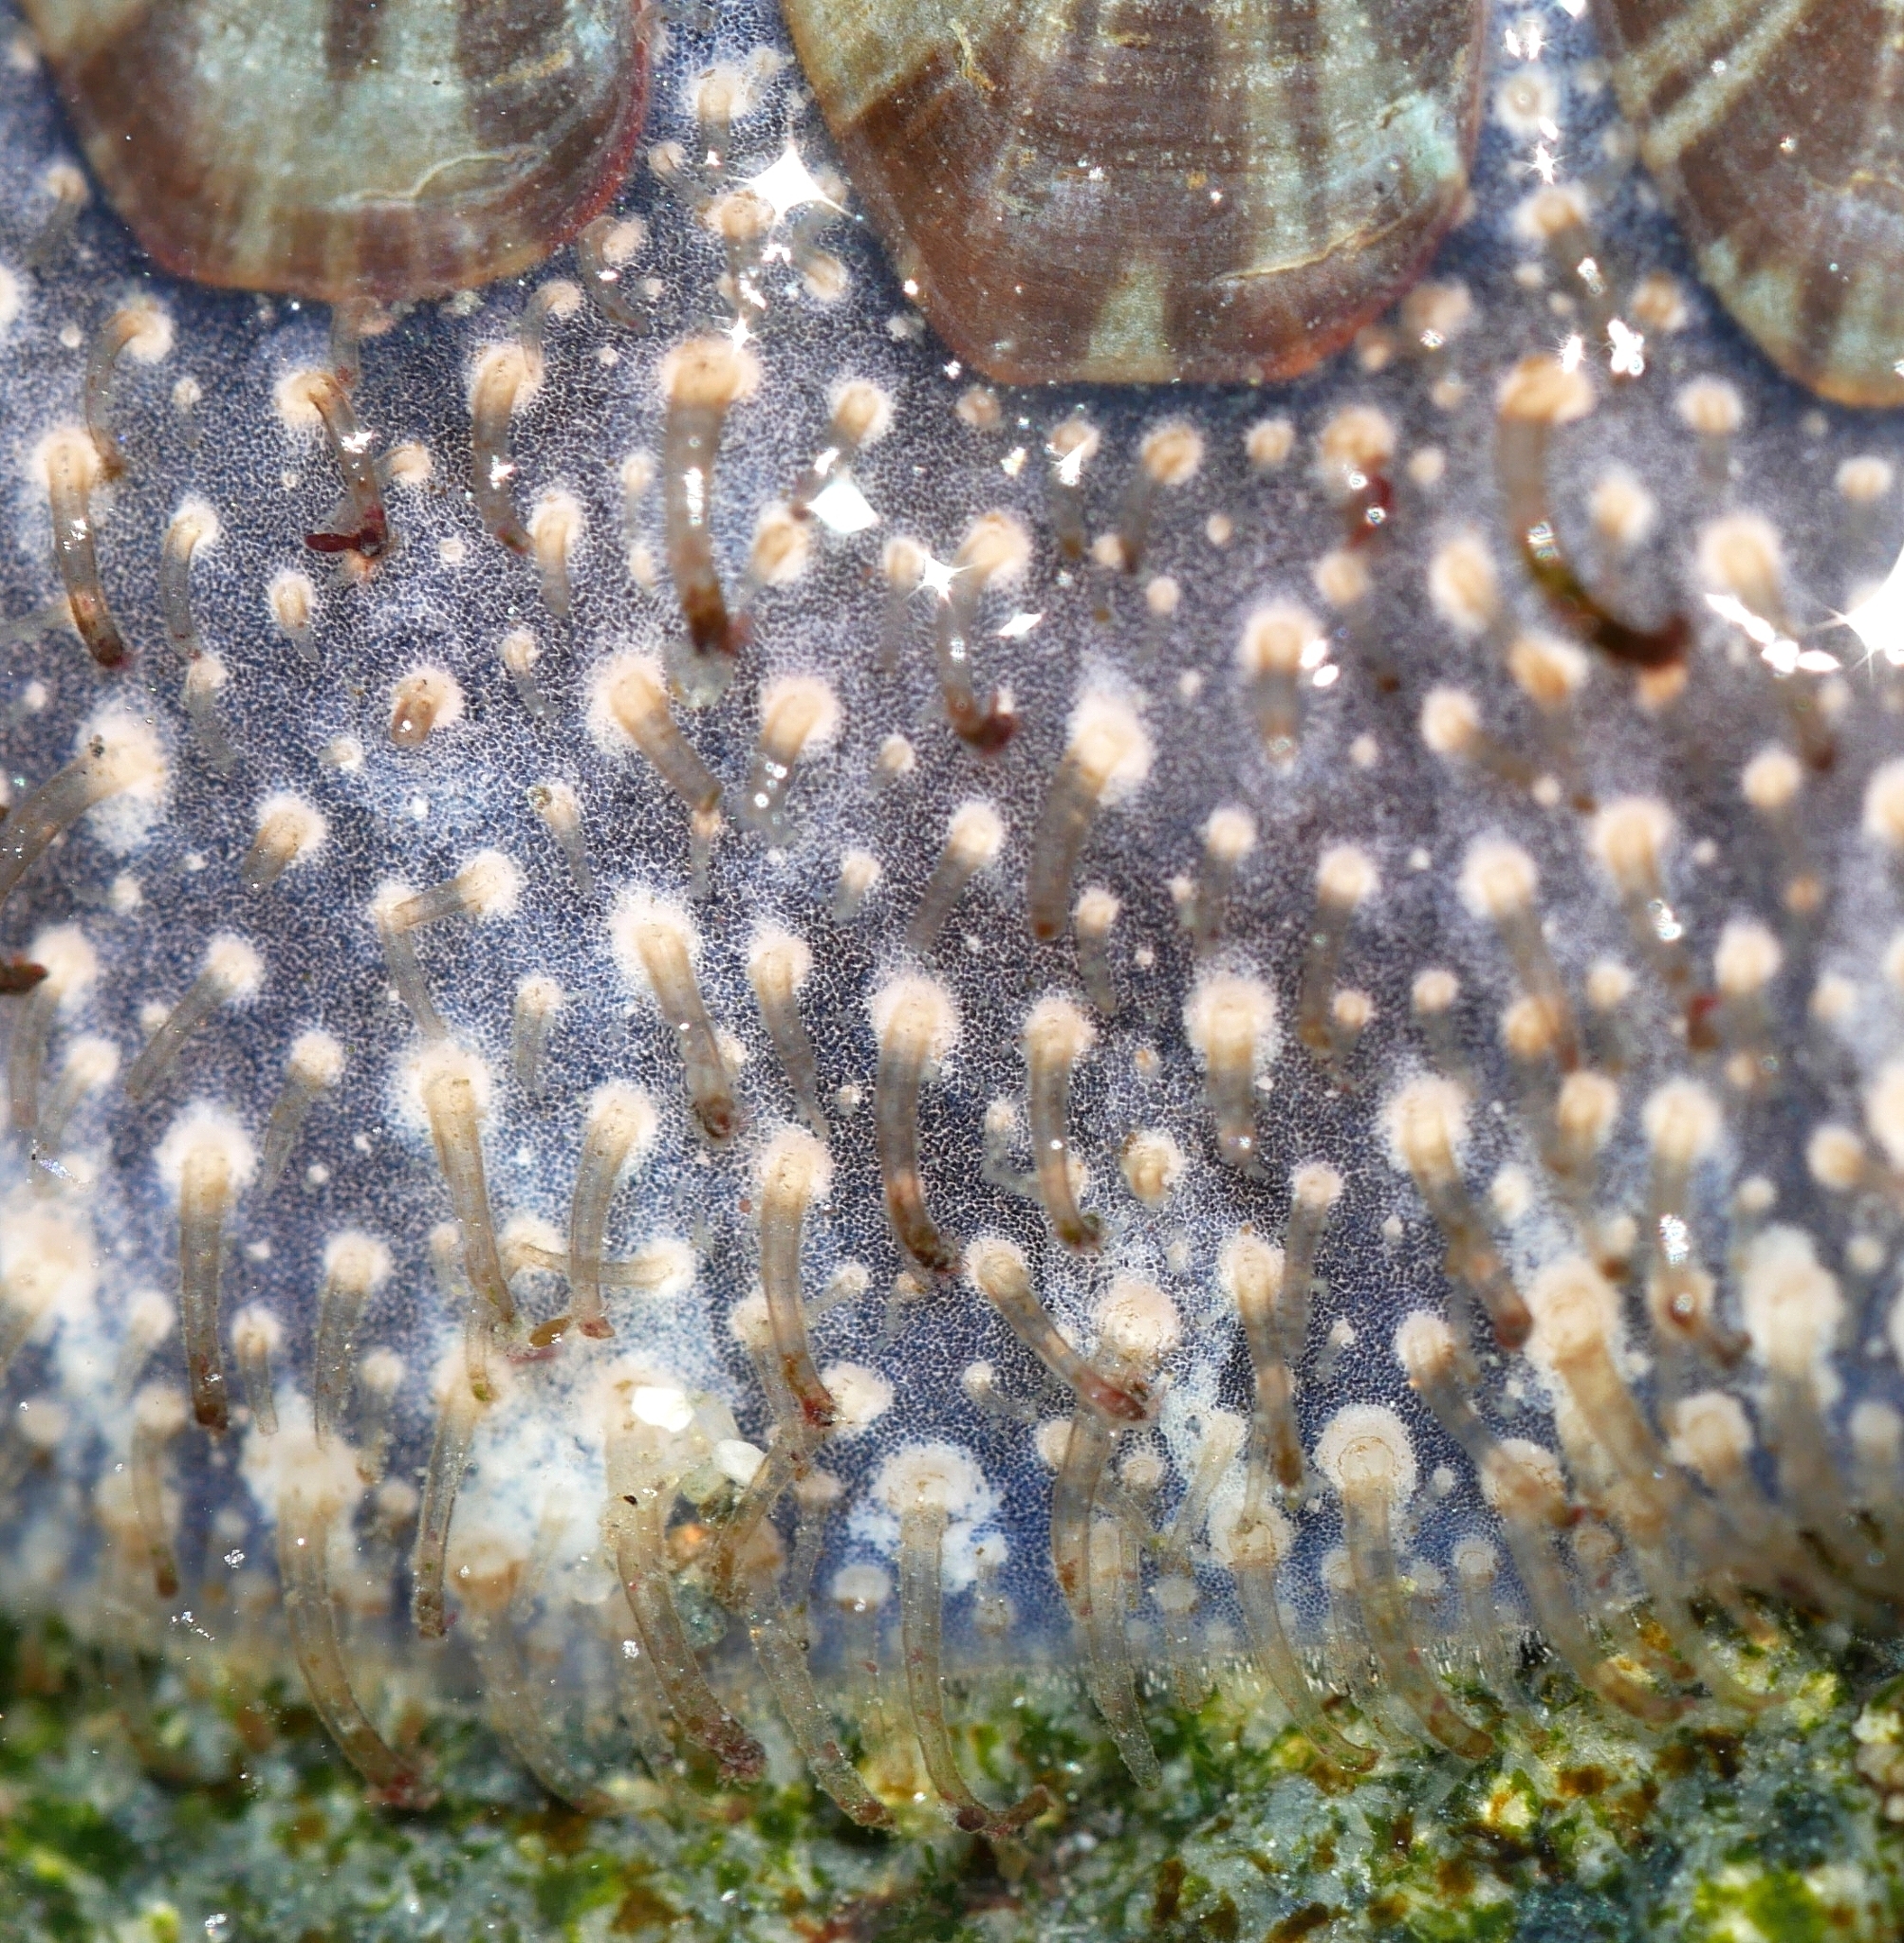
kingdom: Animalia
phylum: Mollusca
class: Polyplacophora
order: Chitonida
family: Mopaliidae
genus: Mopalia
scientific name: Mopalia lignosa
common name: Woody chiton
